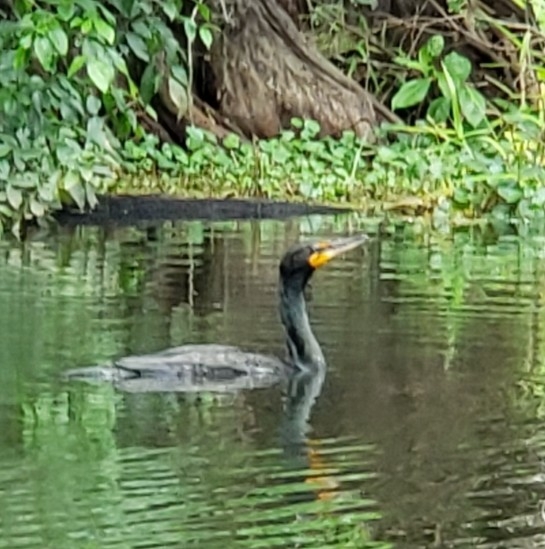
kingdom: Animalia
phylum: Chordata
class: Aves
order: Suliformes
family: Phalacrocoracidae
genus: Phalacrocorax
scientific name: Phalacrocorax auritus
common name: Double-crested cormorant
